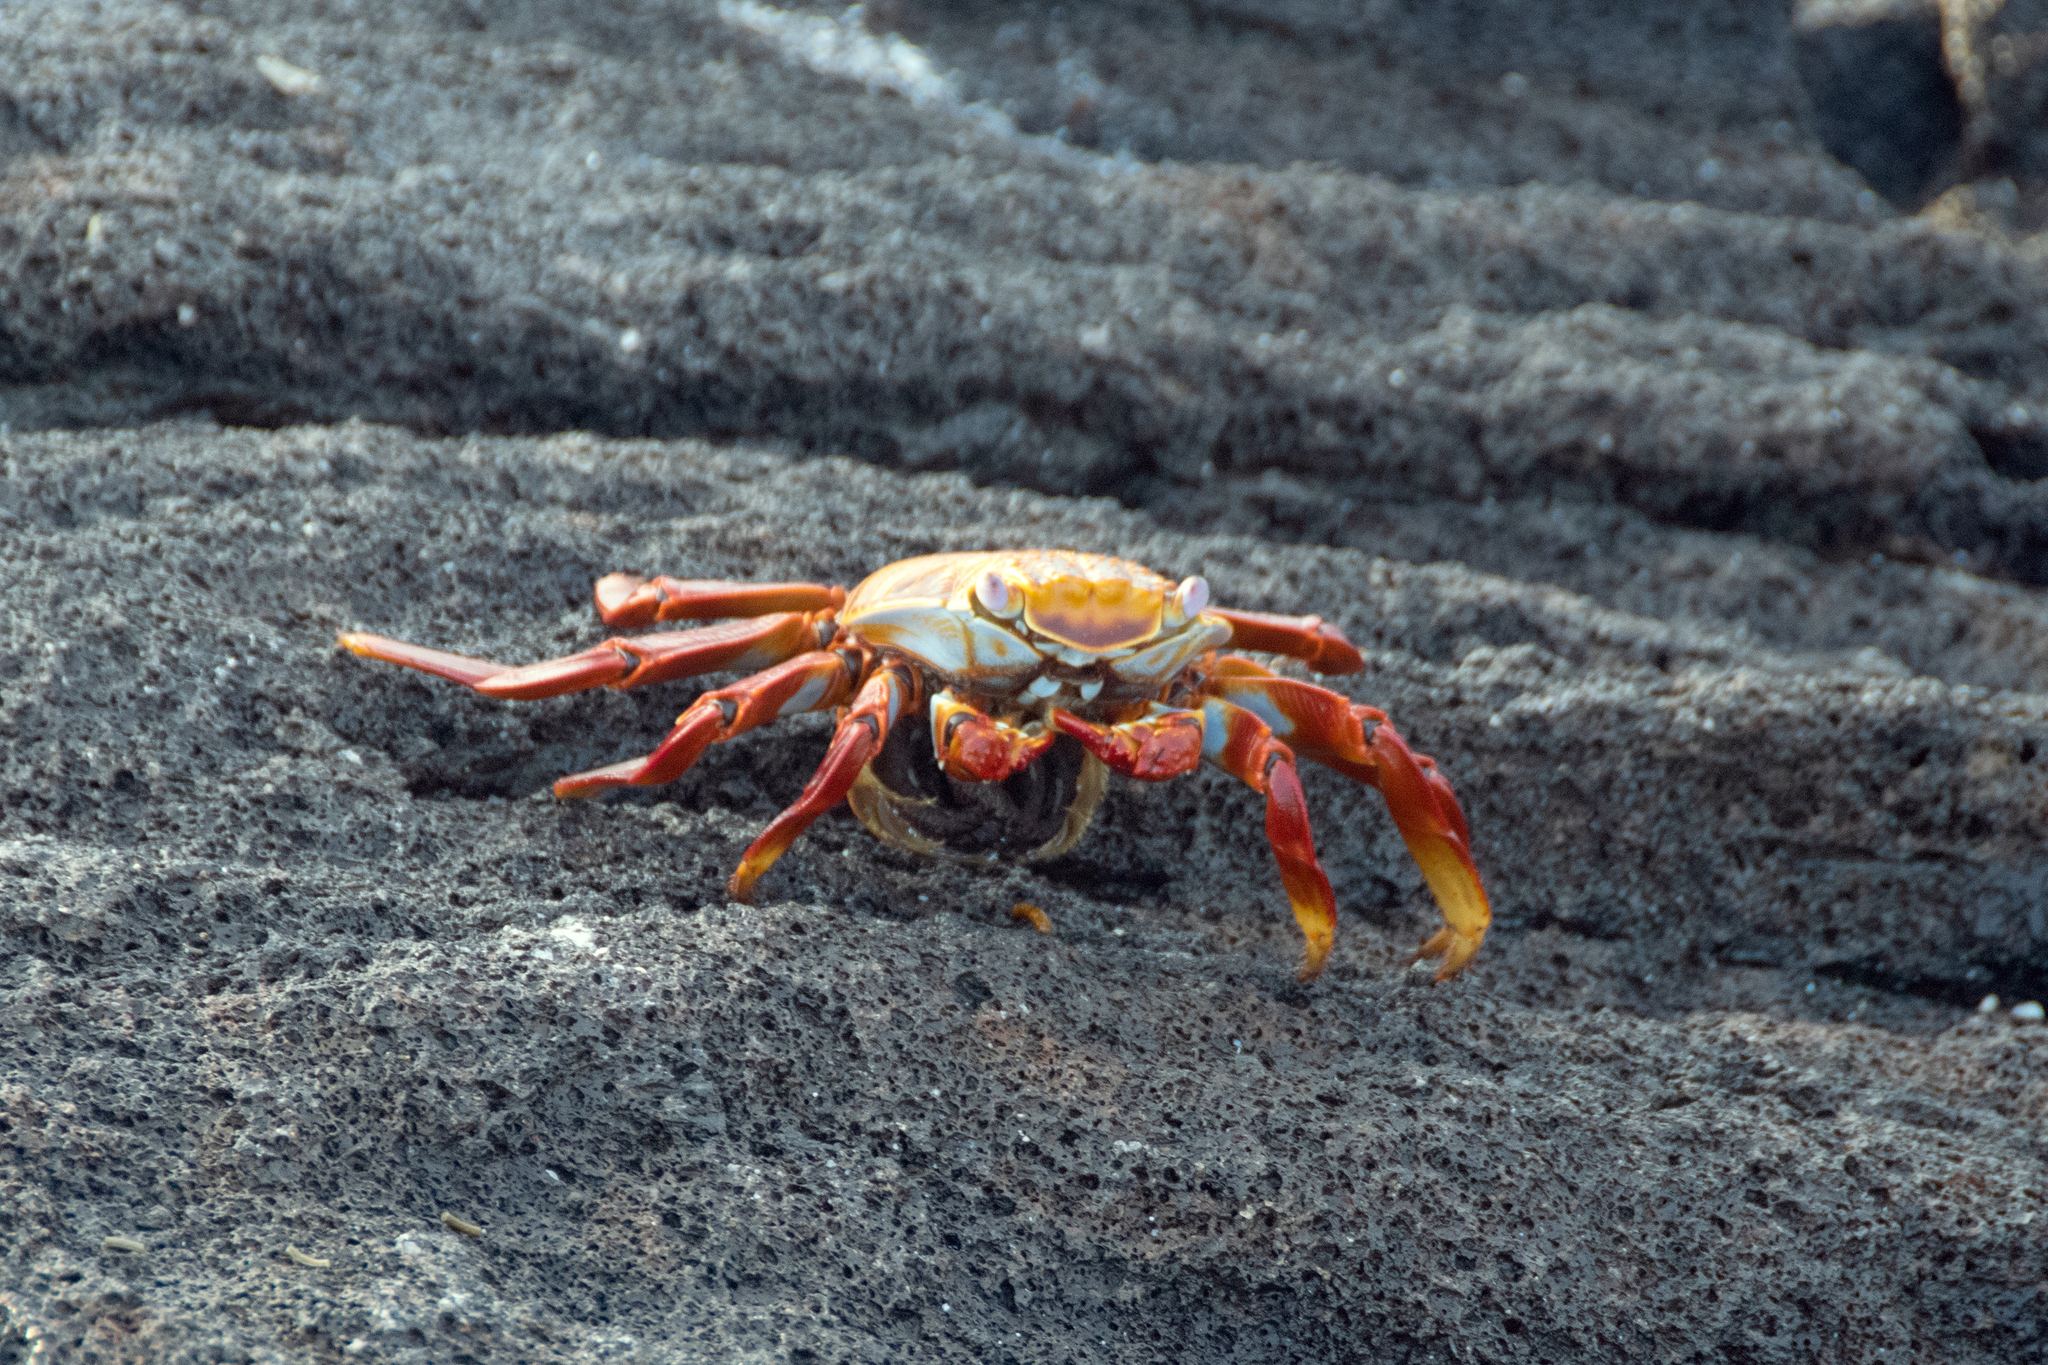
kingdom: Animalia
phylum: Arthropoda
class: Malacostraca
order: Decapoda
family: Grapsidae
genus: Grapsus
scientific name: Grapsus grapsus
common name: Sally lightfoot
